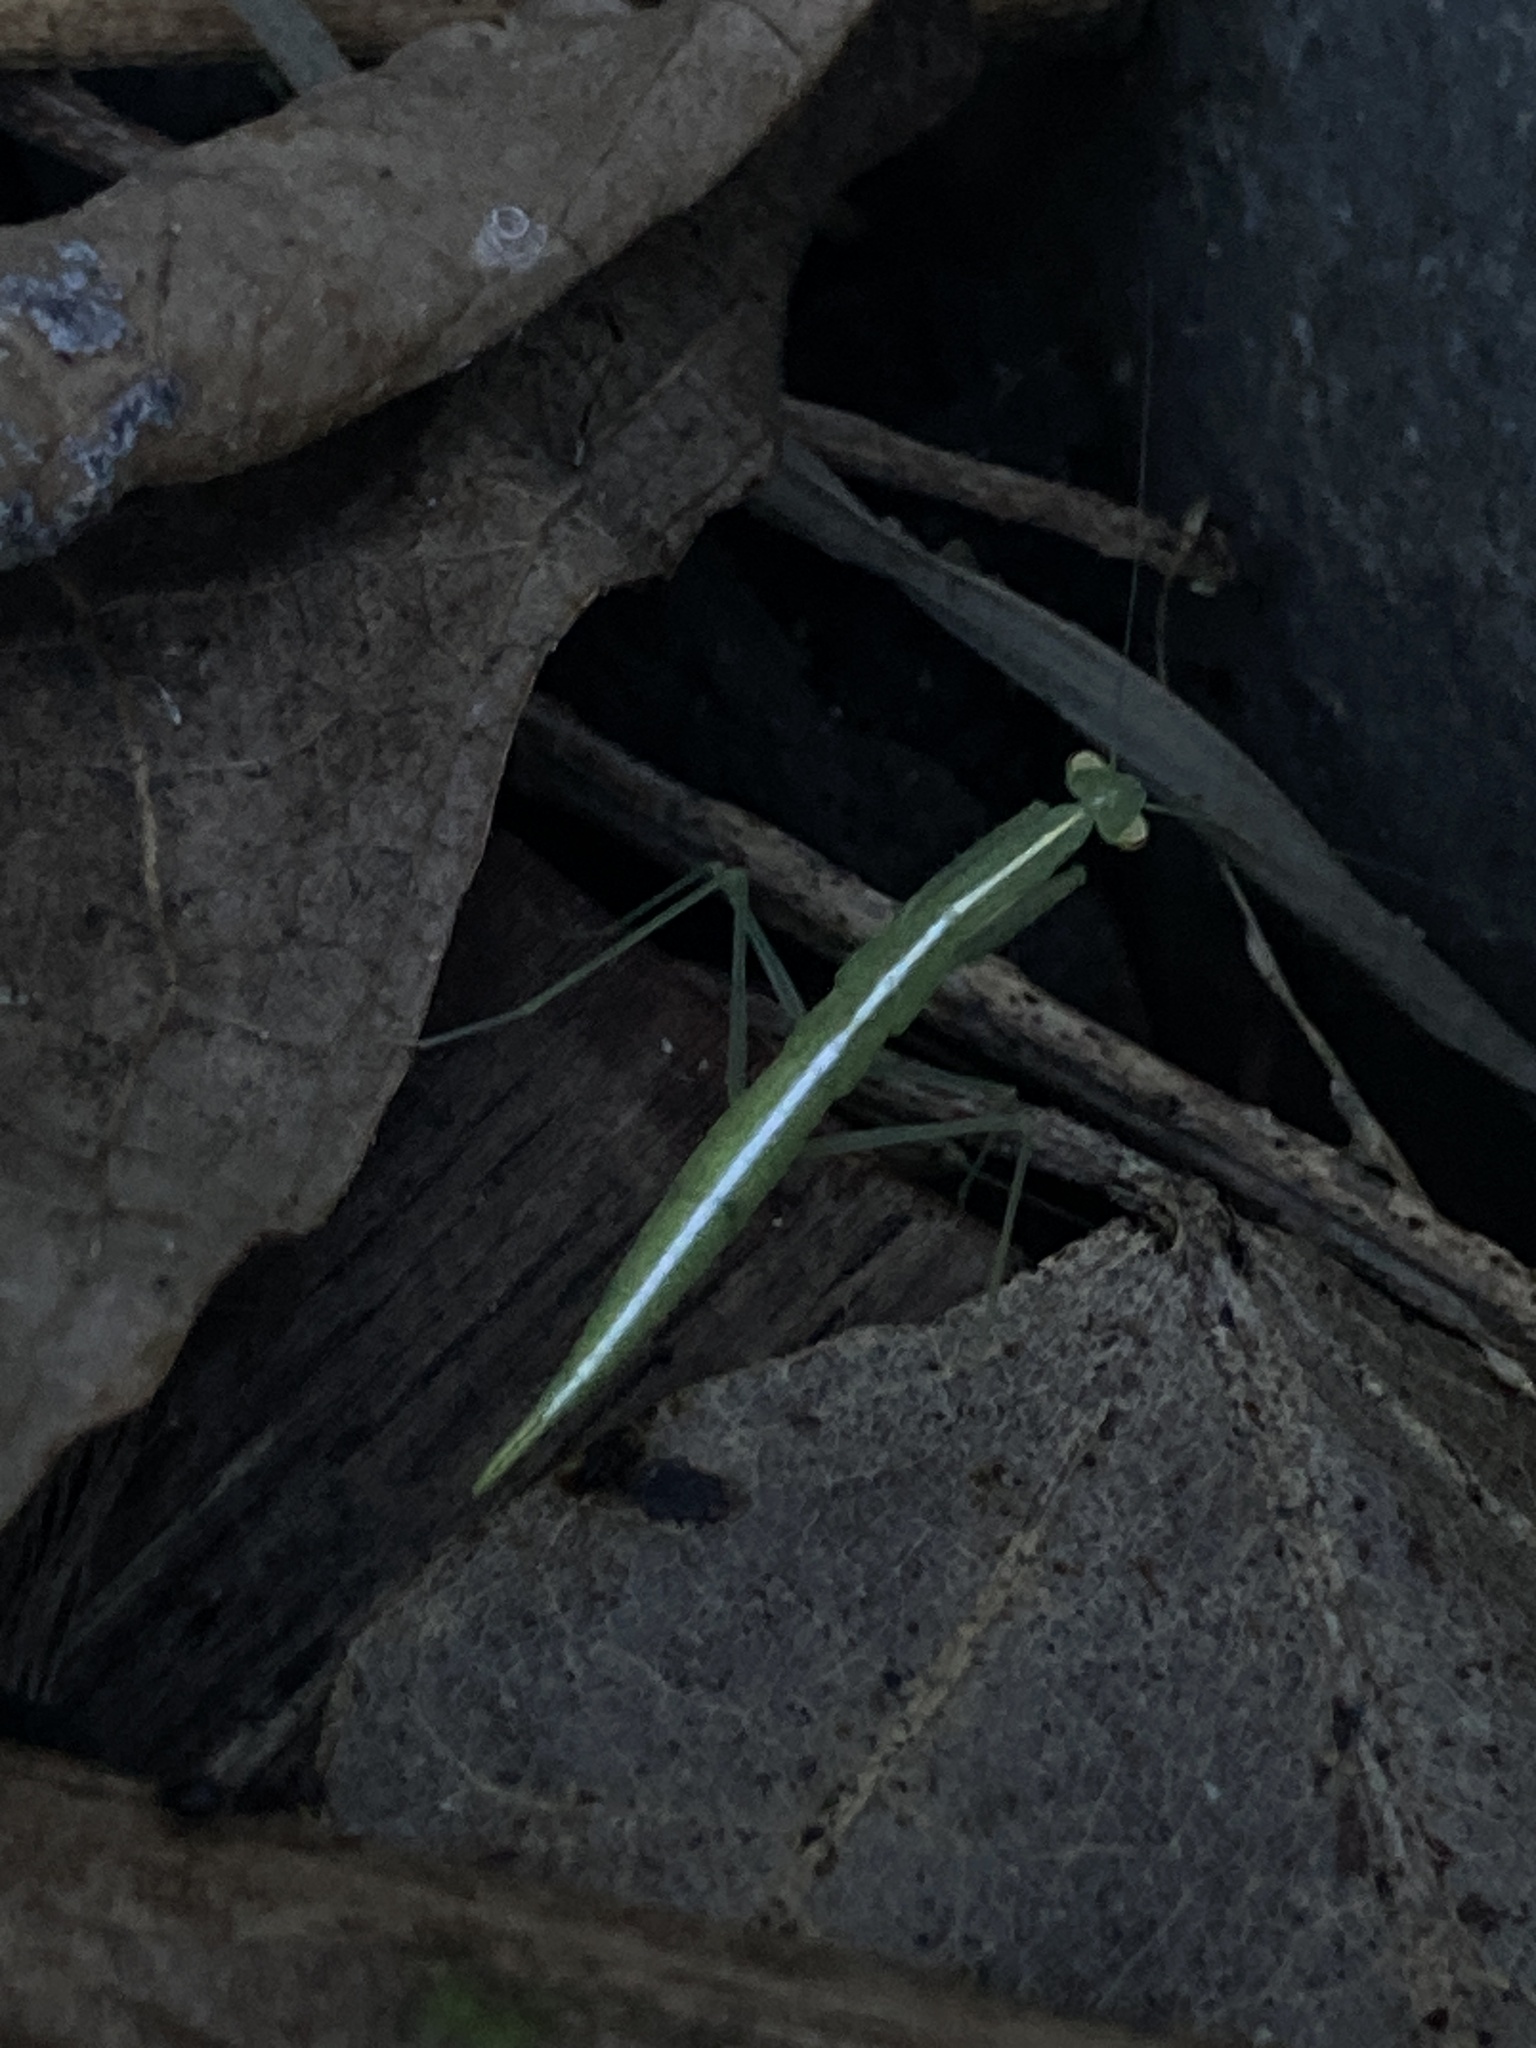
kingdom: Animalia
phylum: Arthropoda
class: Insecta
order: Mantodea
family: Nanomantidae
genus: Kongobatha
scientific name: Kongobatha diademata
